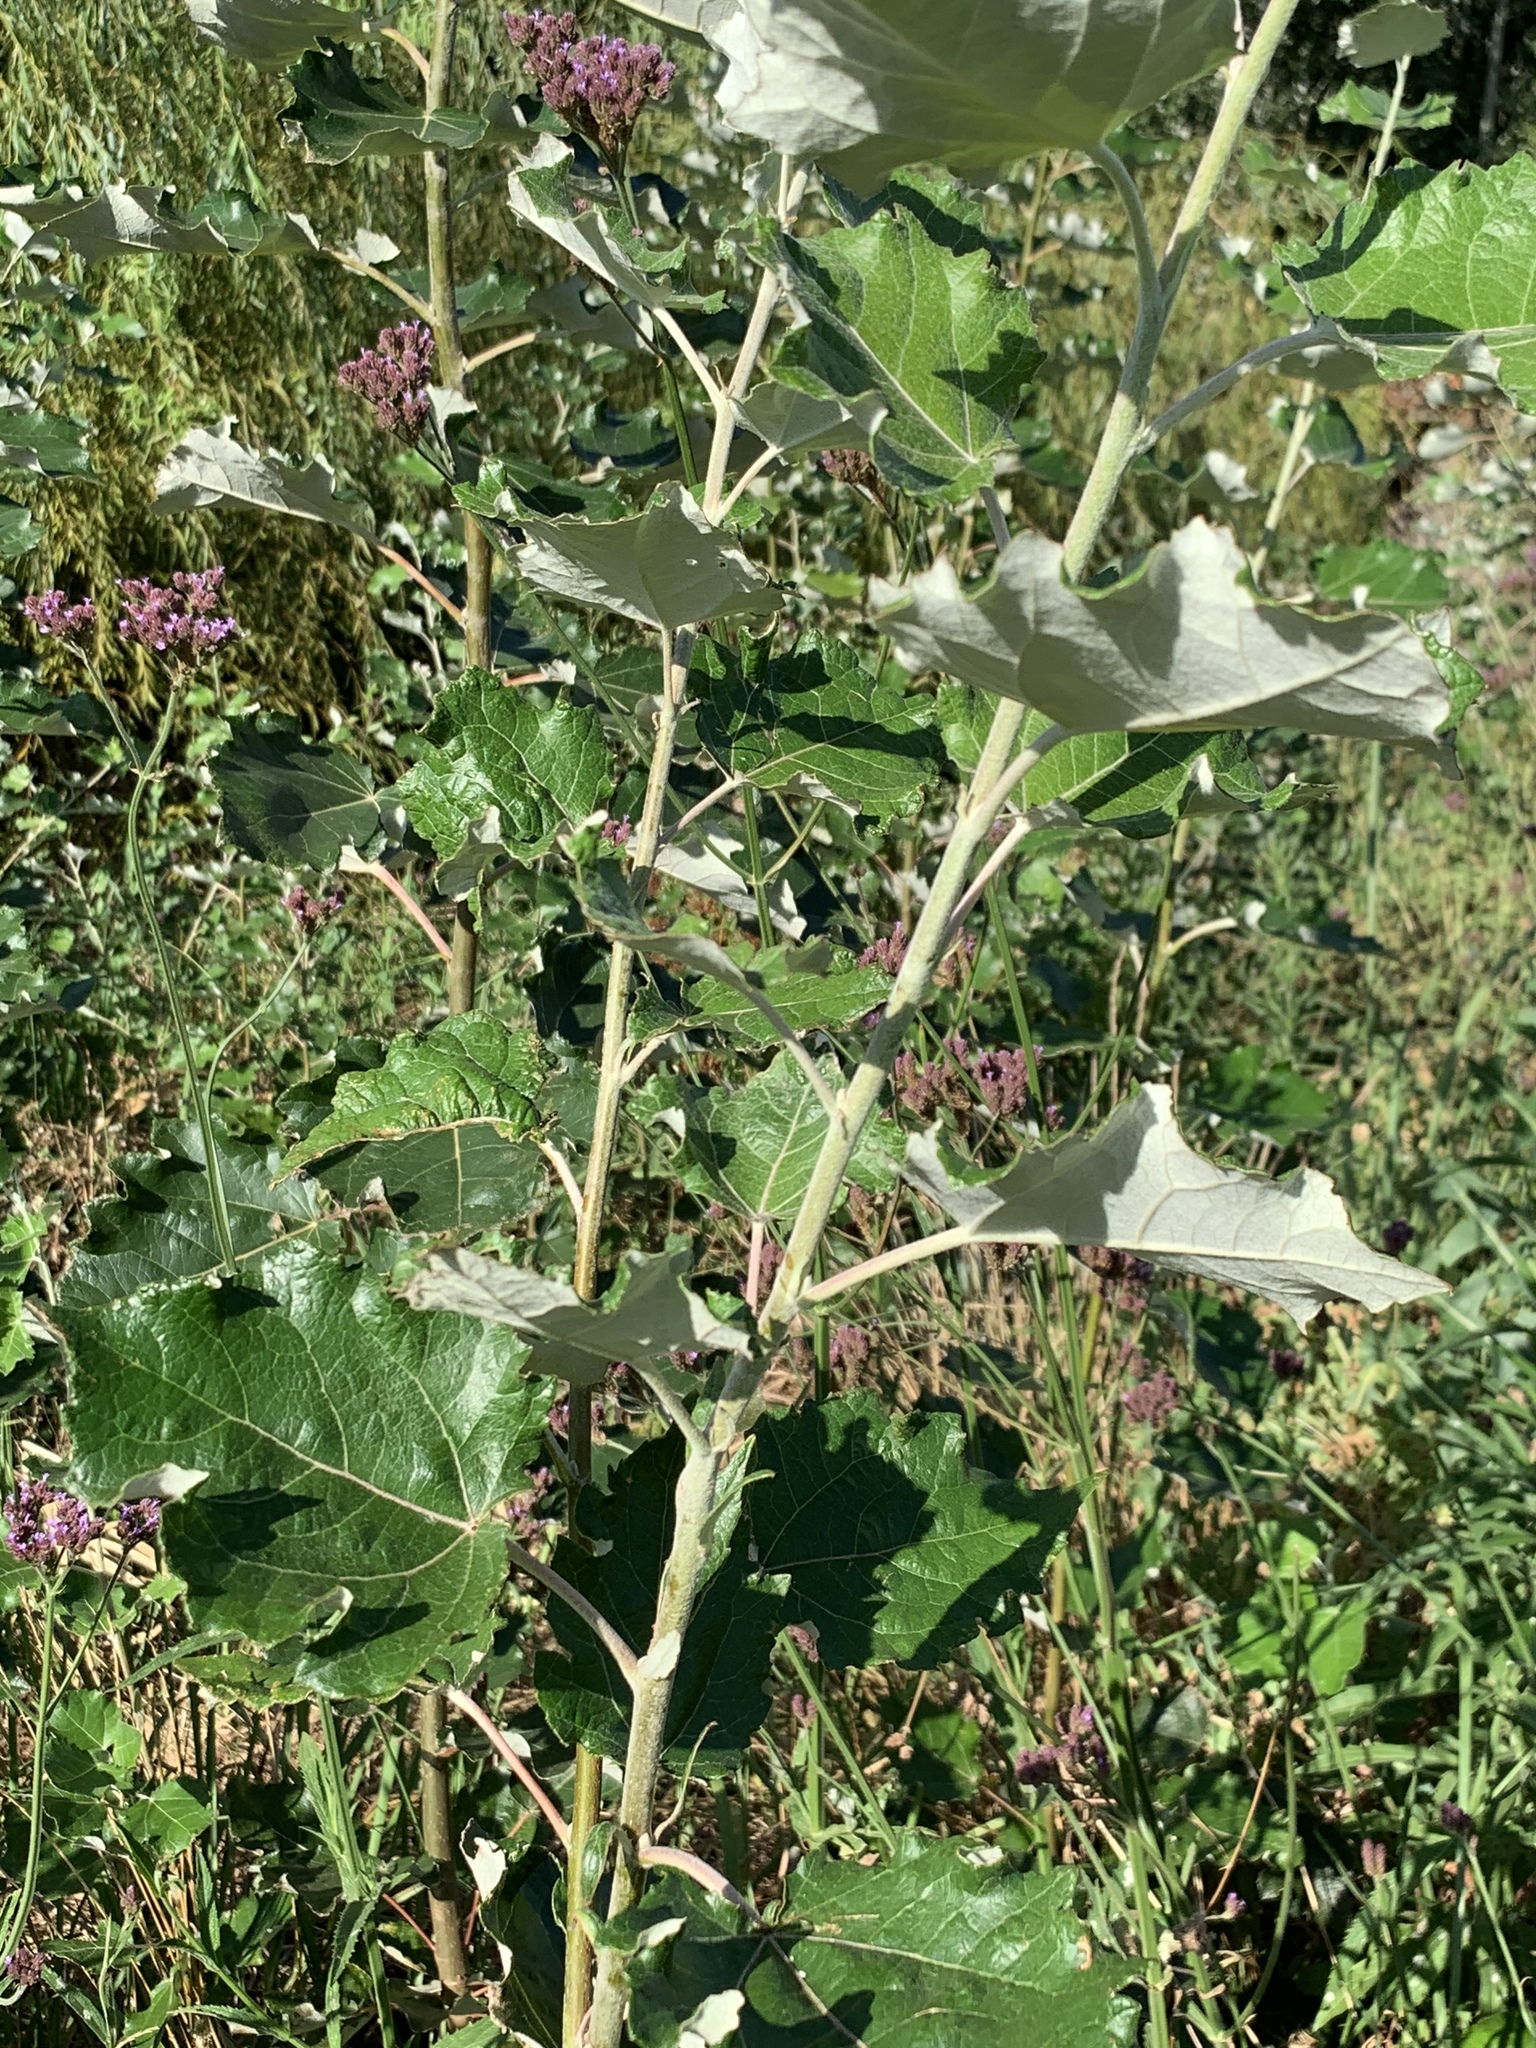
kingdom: Plantae
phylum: Tracheophyta
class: Magnoliopsida
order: Malpighiales
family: Salicaceae
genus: Populus
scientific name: Populus canescens
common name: Gray poplar
